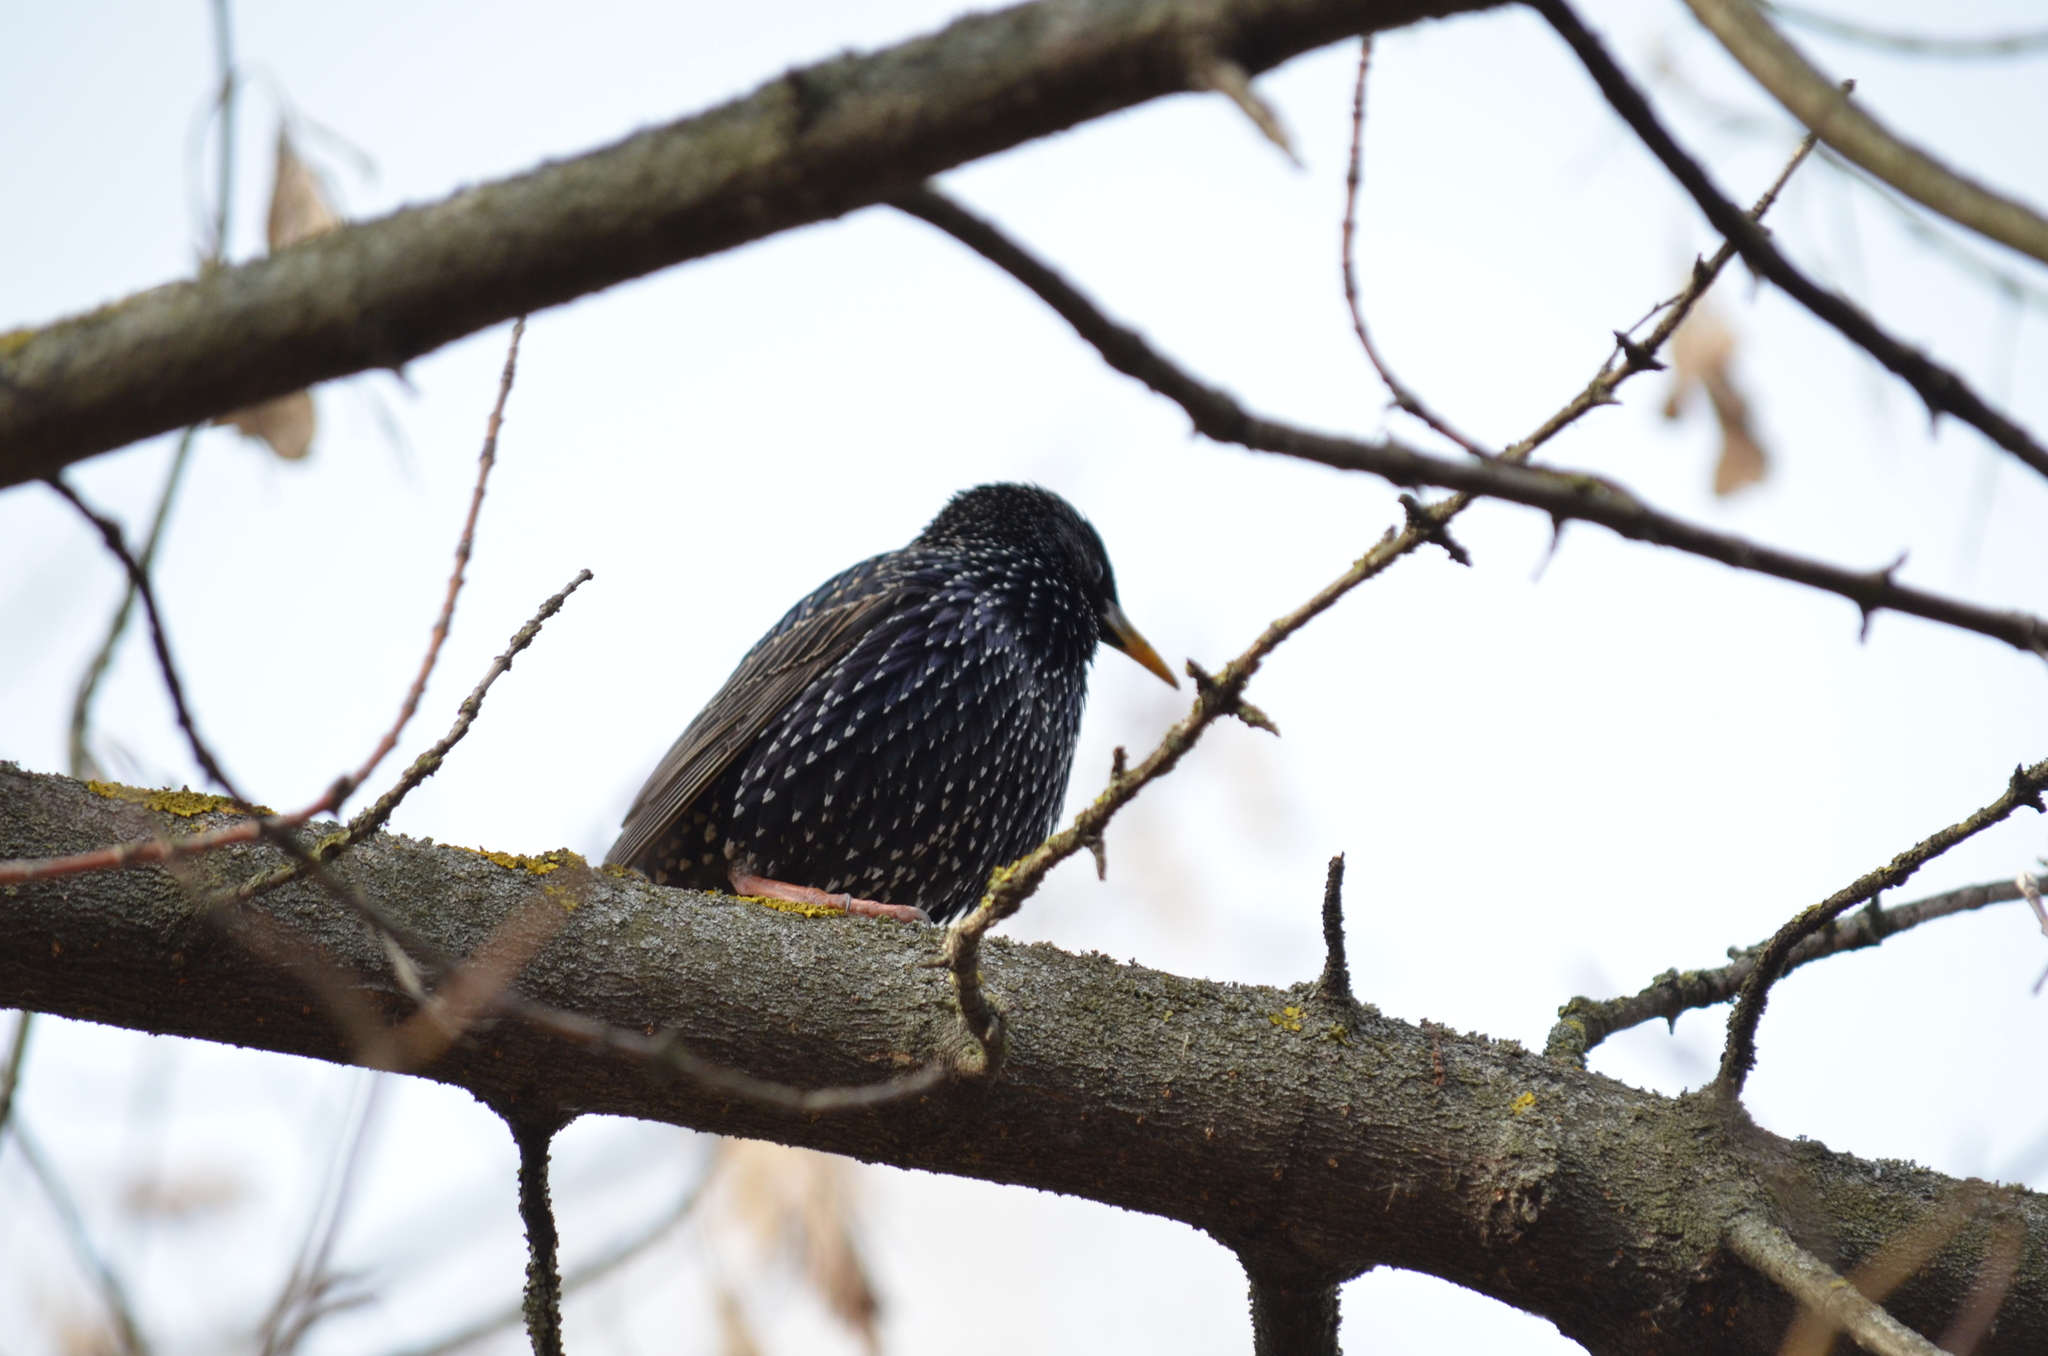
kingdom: Animalia
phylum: Chordata
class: Aves
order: Passeriformes
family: Sturnidae
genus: Sturnus
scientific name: Sturnus vulgaris
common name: Common starling
